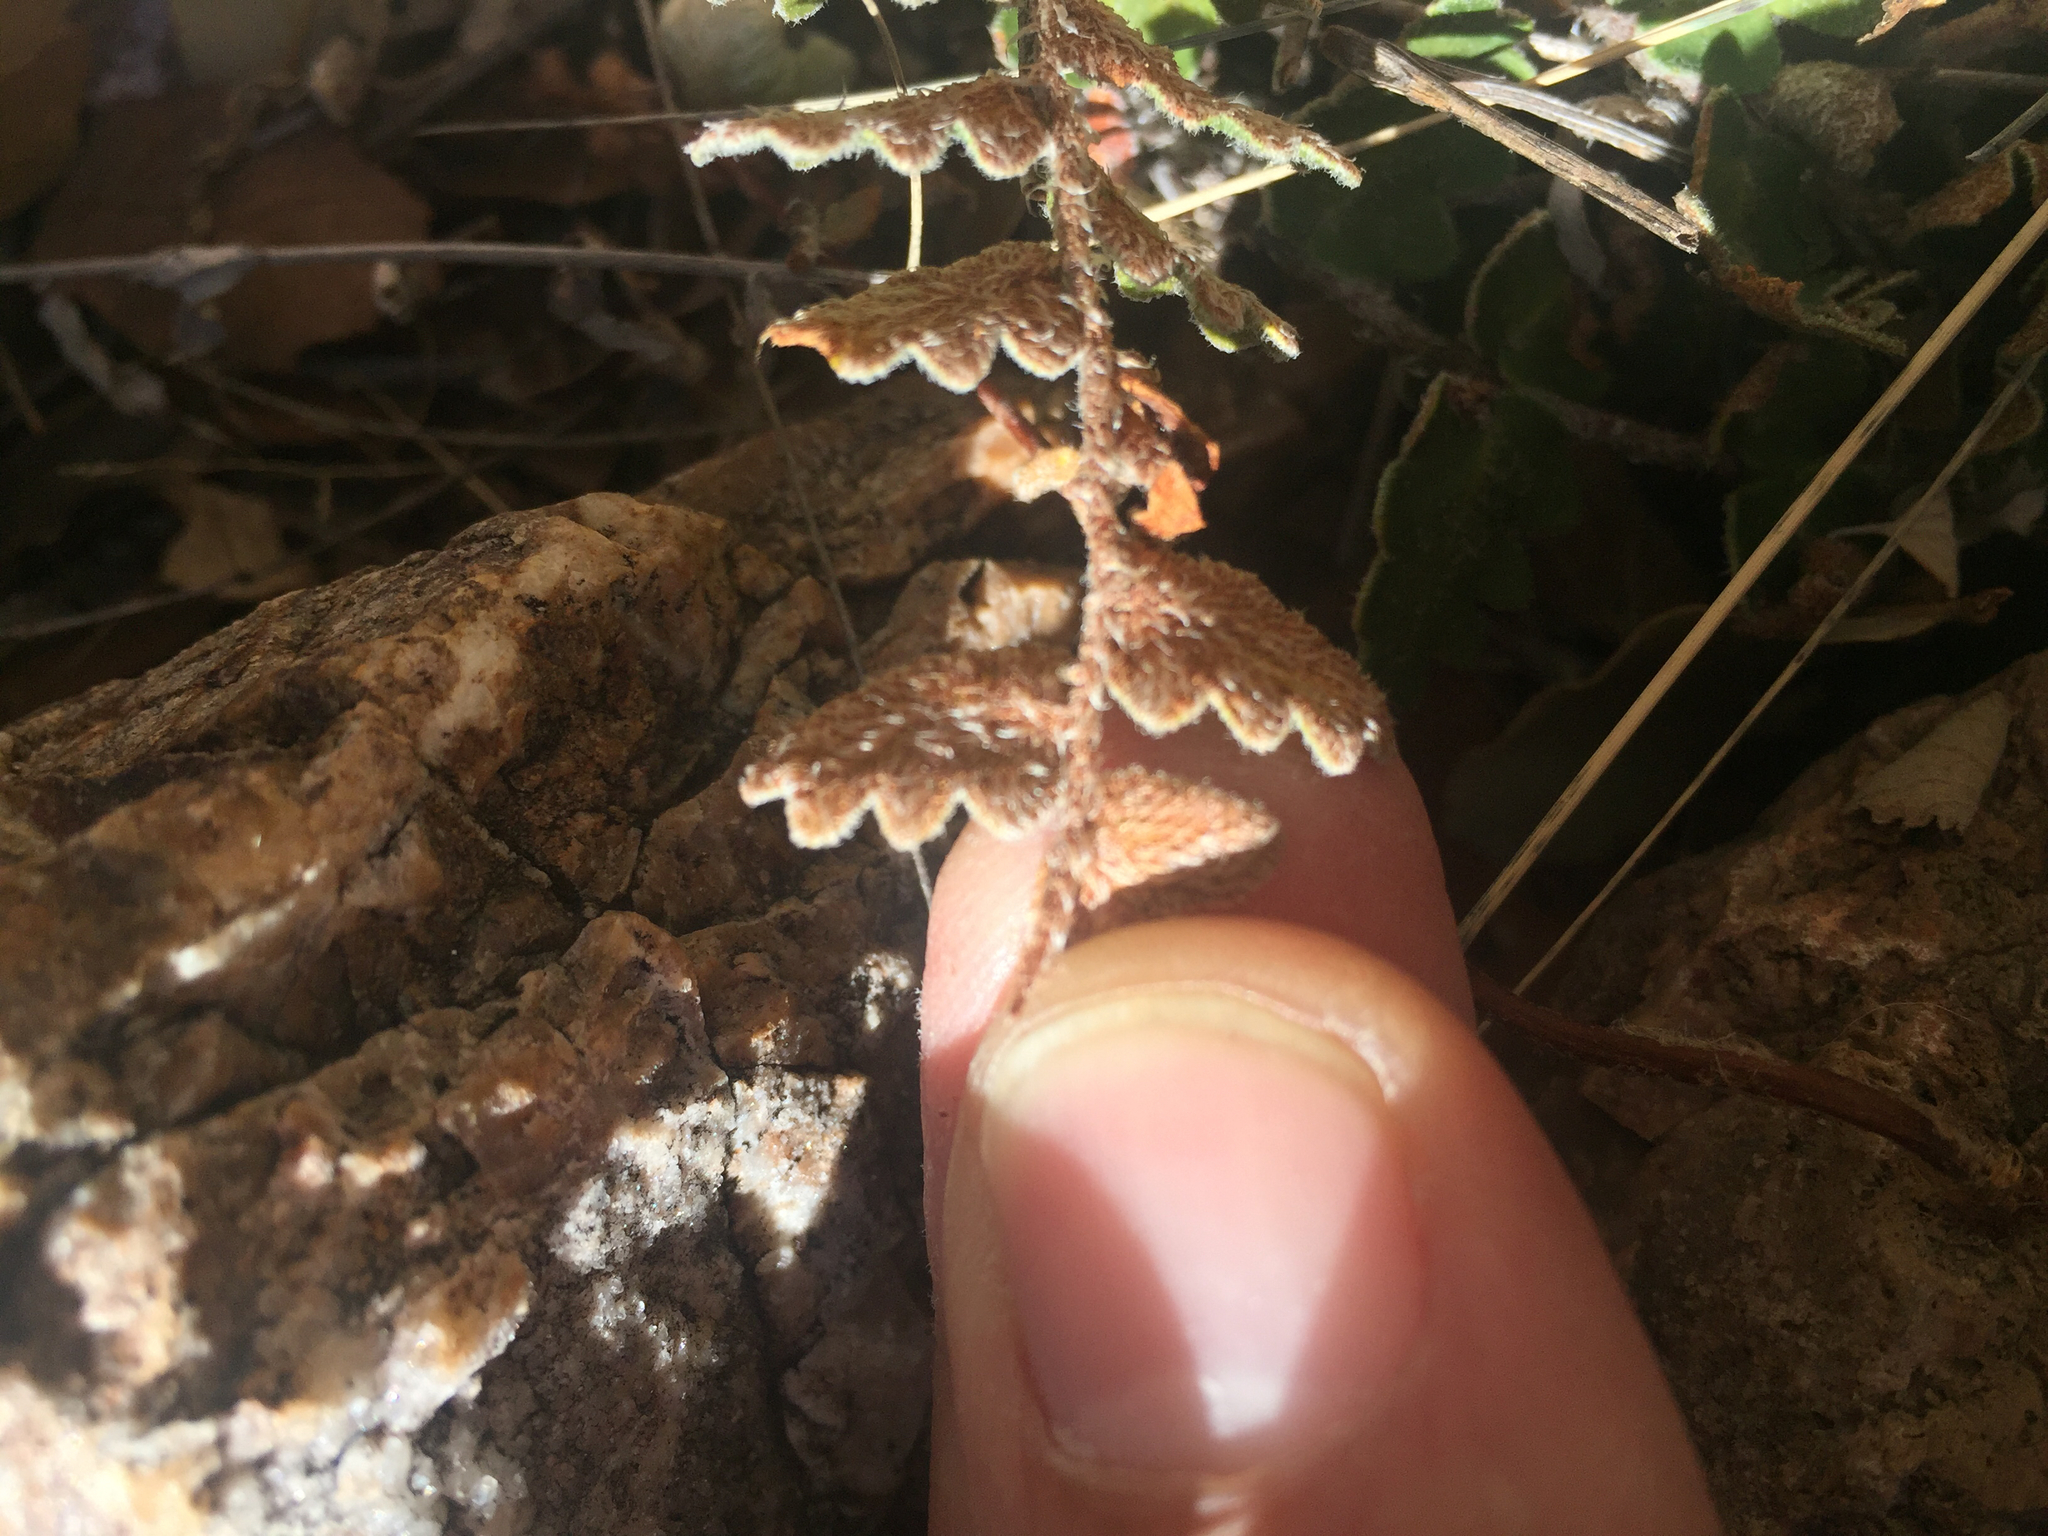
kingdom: Plantae
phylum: Tracheophyta
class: Polypodiopsida
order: Polypodiales
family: Pteridaceae
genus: Astrolepis
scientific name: Astrolepis sinuata
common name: Wavy scaly cloakfern
